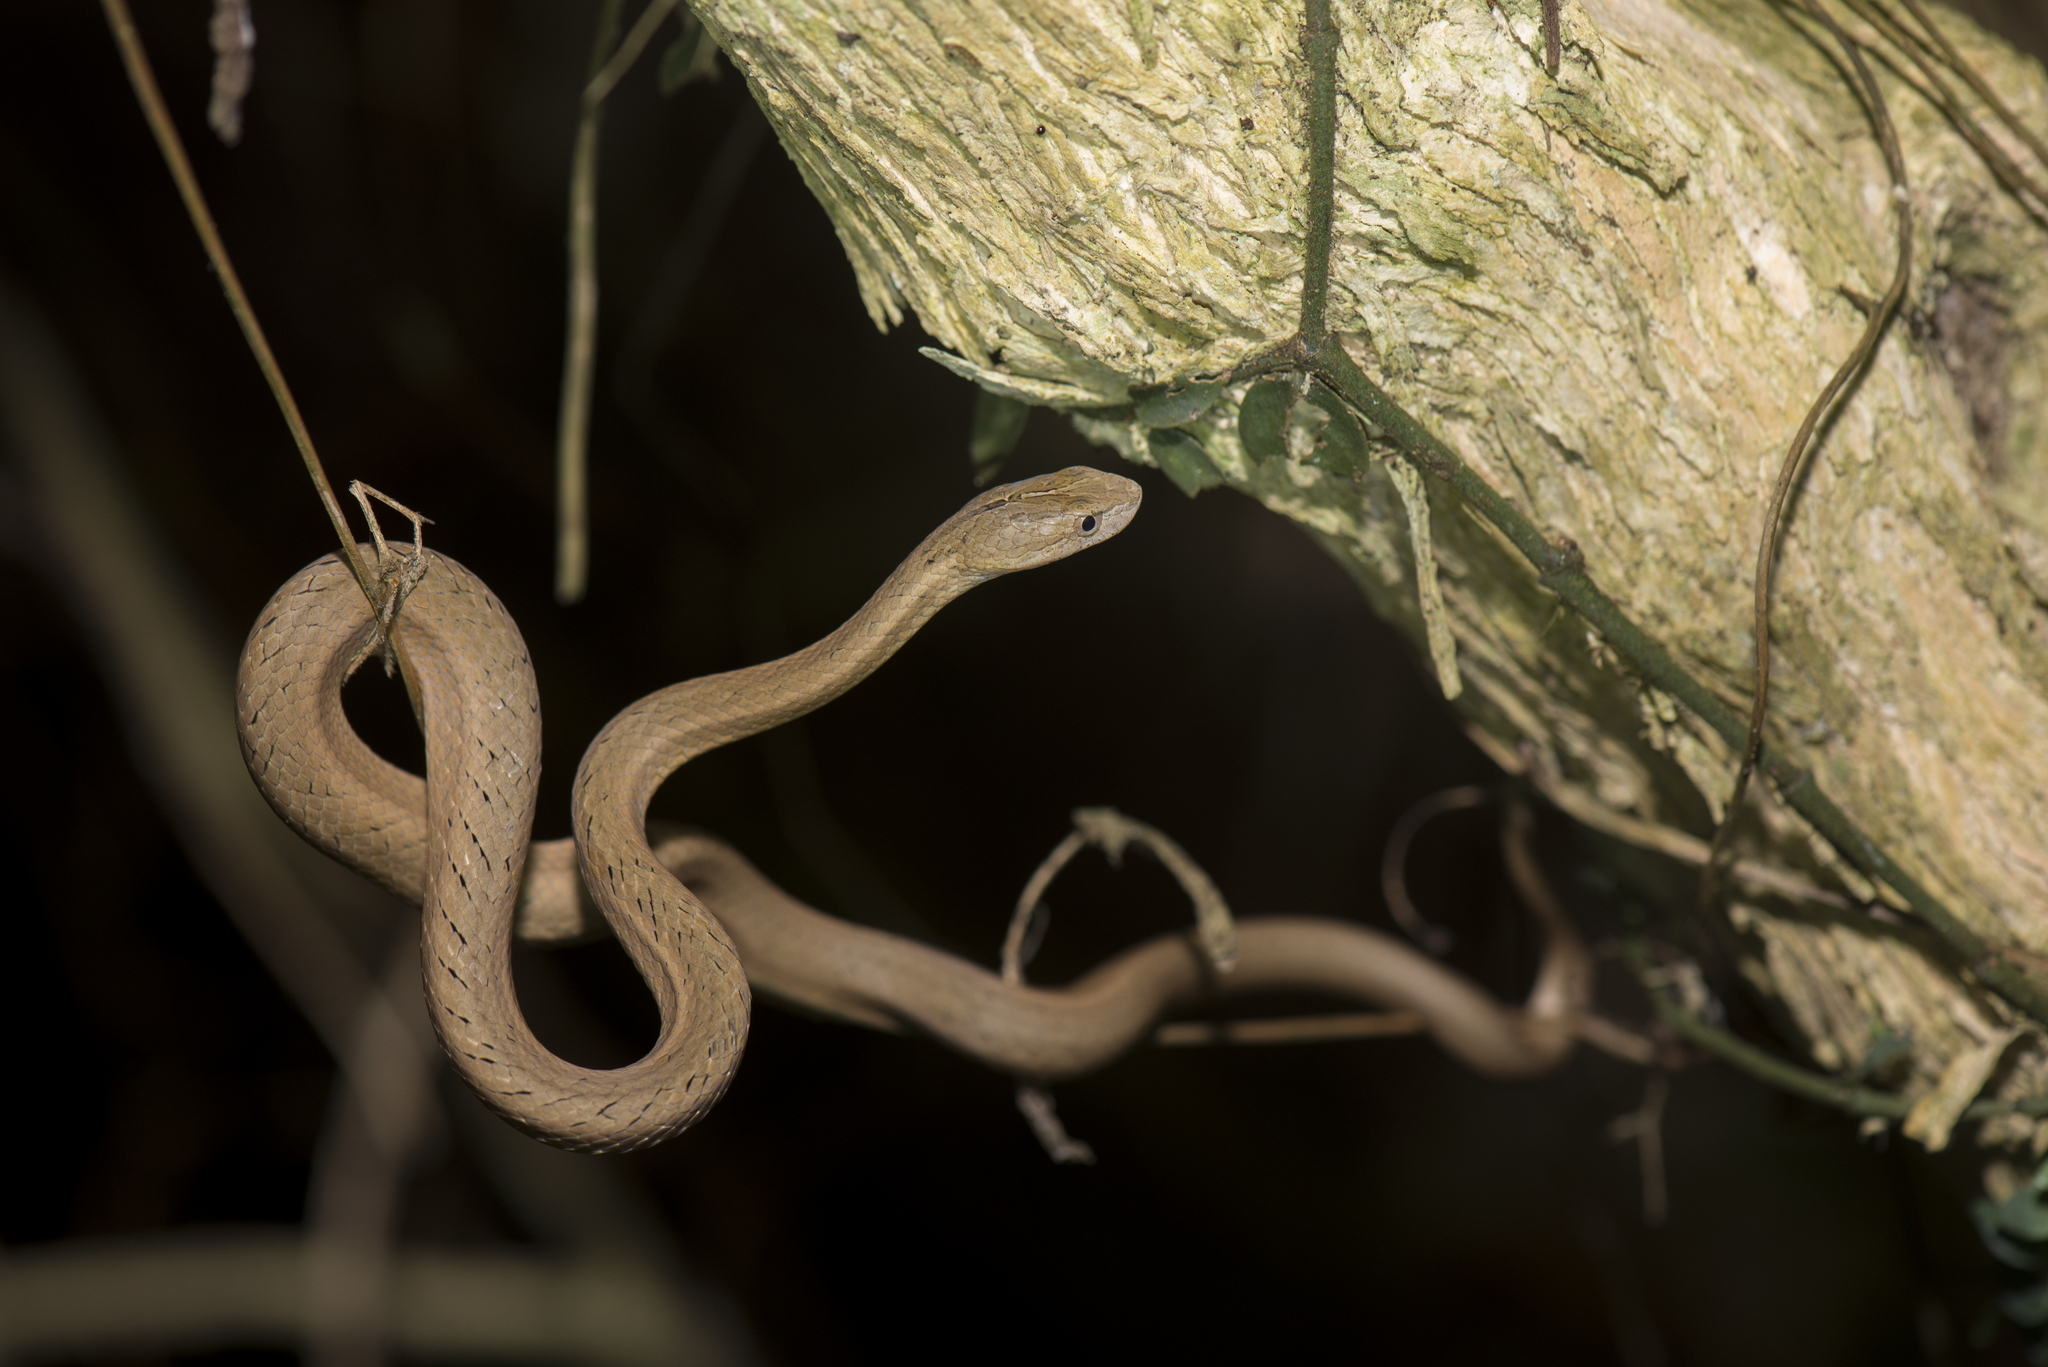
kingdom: Animalia
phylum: Chordata
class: Squamata
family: Pseudaspididae
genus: Psammodynastes
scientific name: Psammodynastes pulverulentus
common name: Common mock viper
